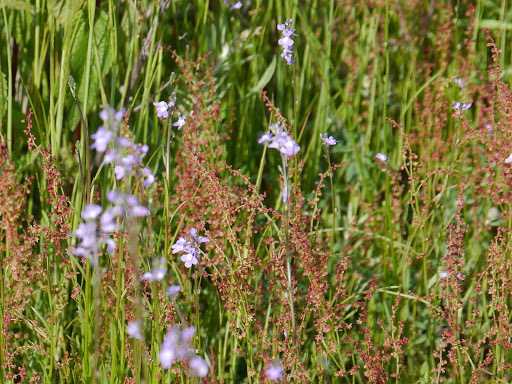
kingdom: Plantae
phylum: Tracheophyta
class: Magnoliopsida
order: Lamiales
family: Plantaginaceae
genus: Nuttallanthus
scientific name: Nuttallanthus canadensis
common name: Blue toadflax
